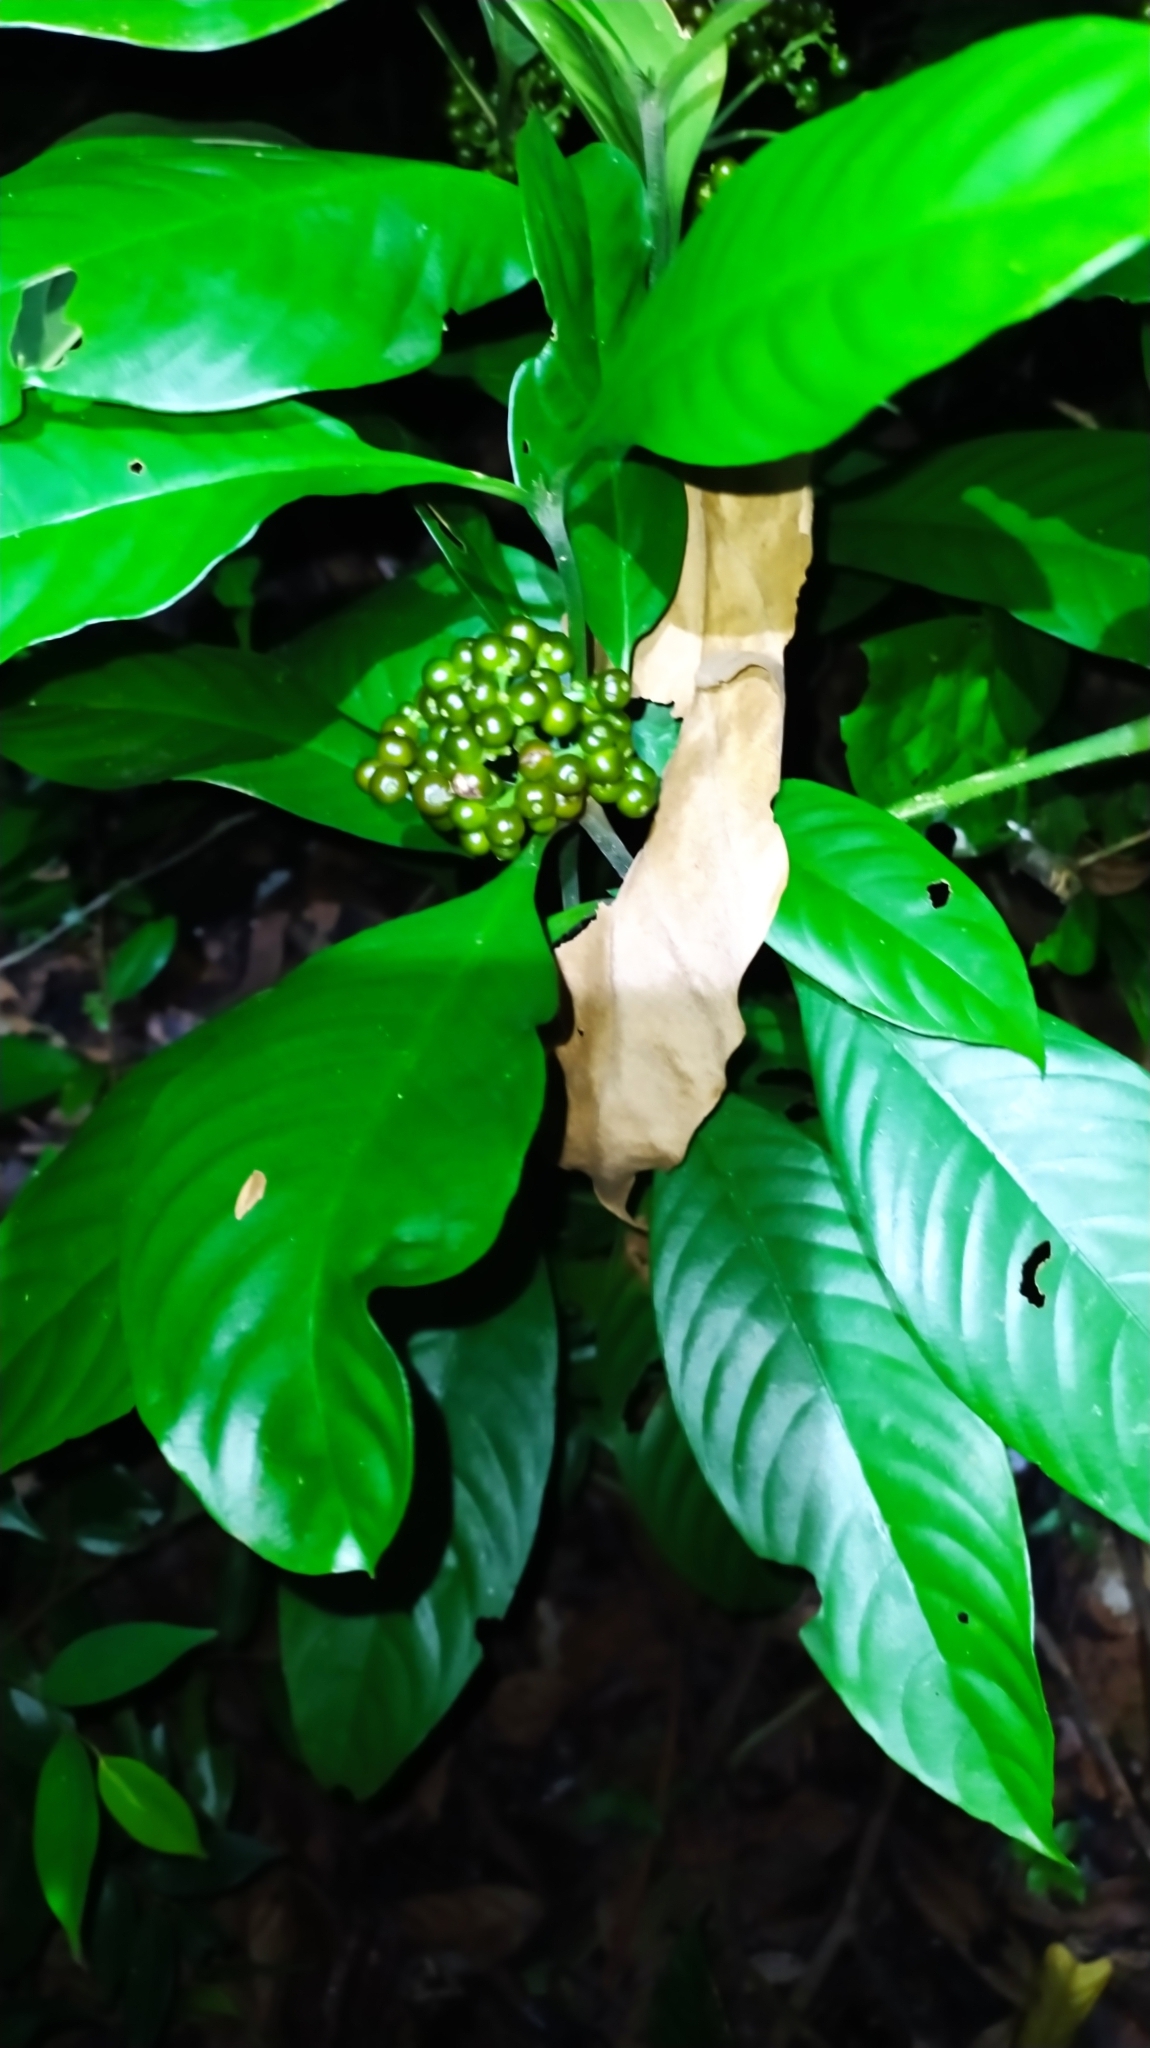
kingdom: Plantae
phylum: Tracheophyta
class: Magnoliopsida
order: Gentianales
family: Rubiaceae
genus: Palicourea
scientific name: Palicourea racemosa
